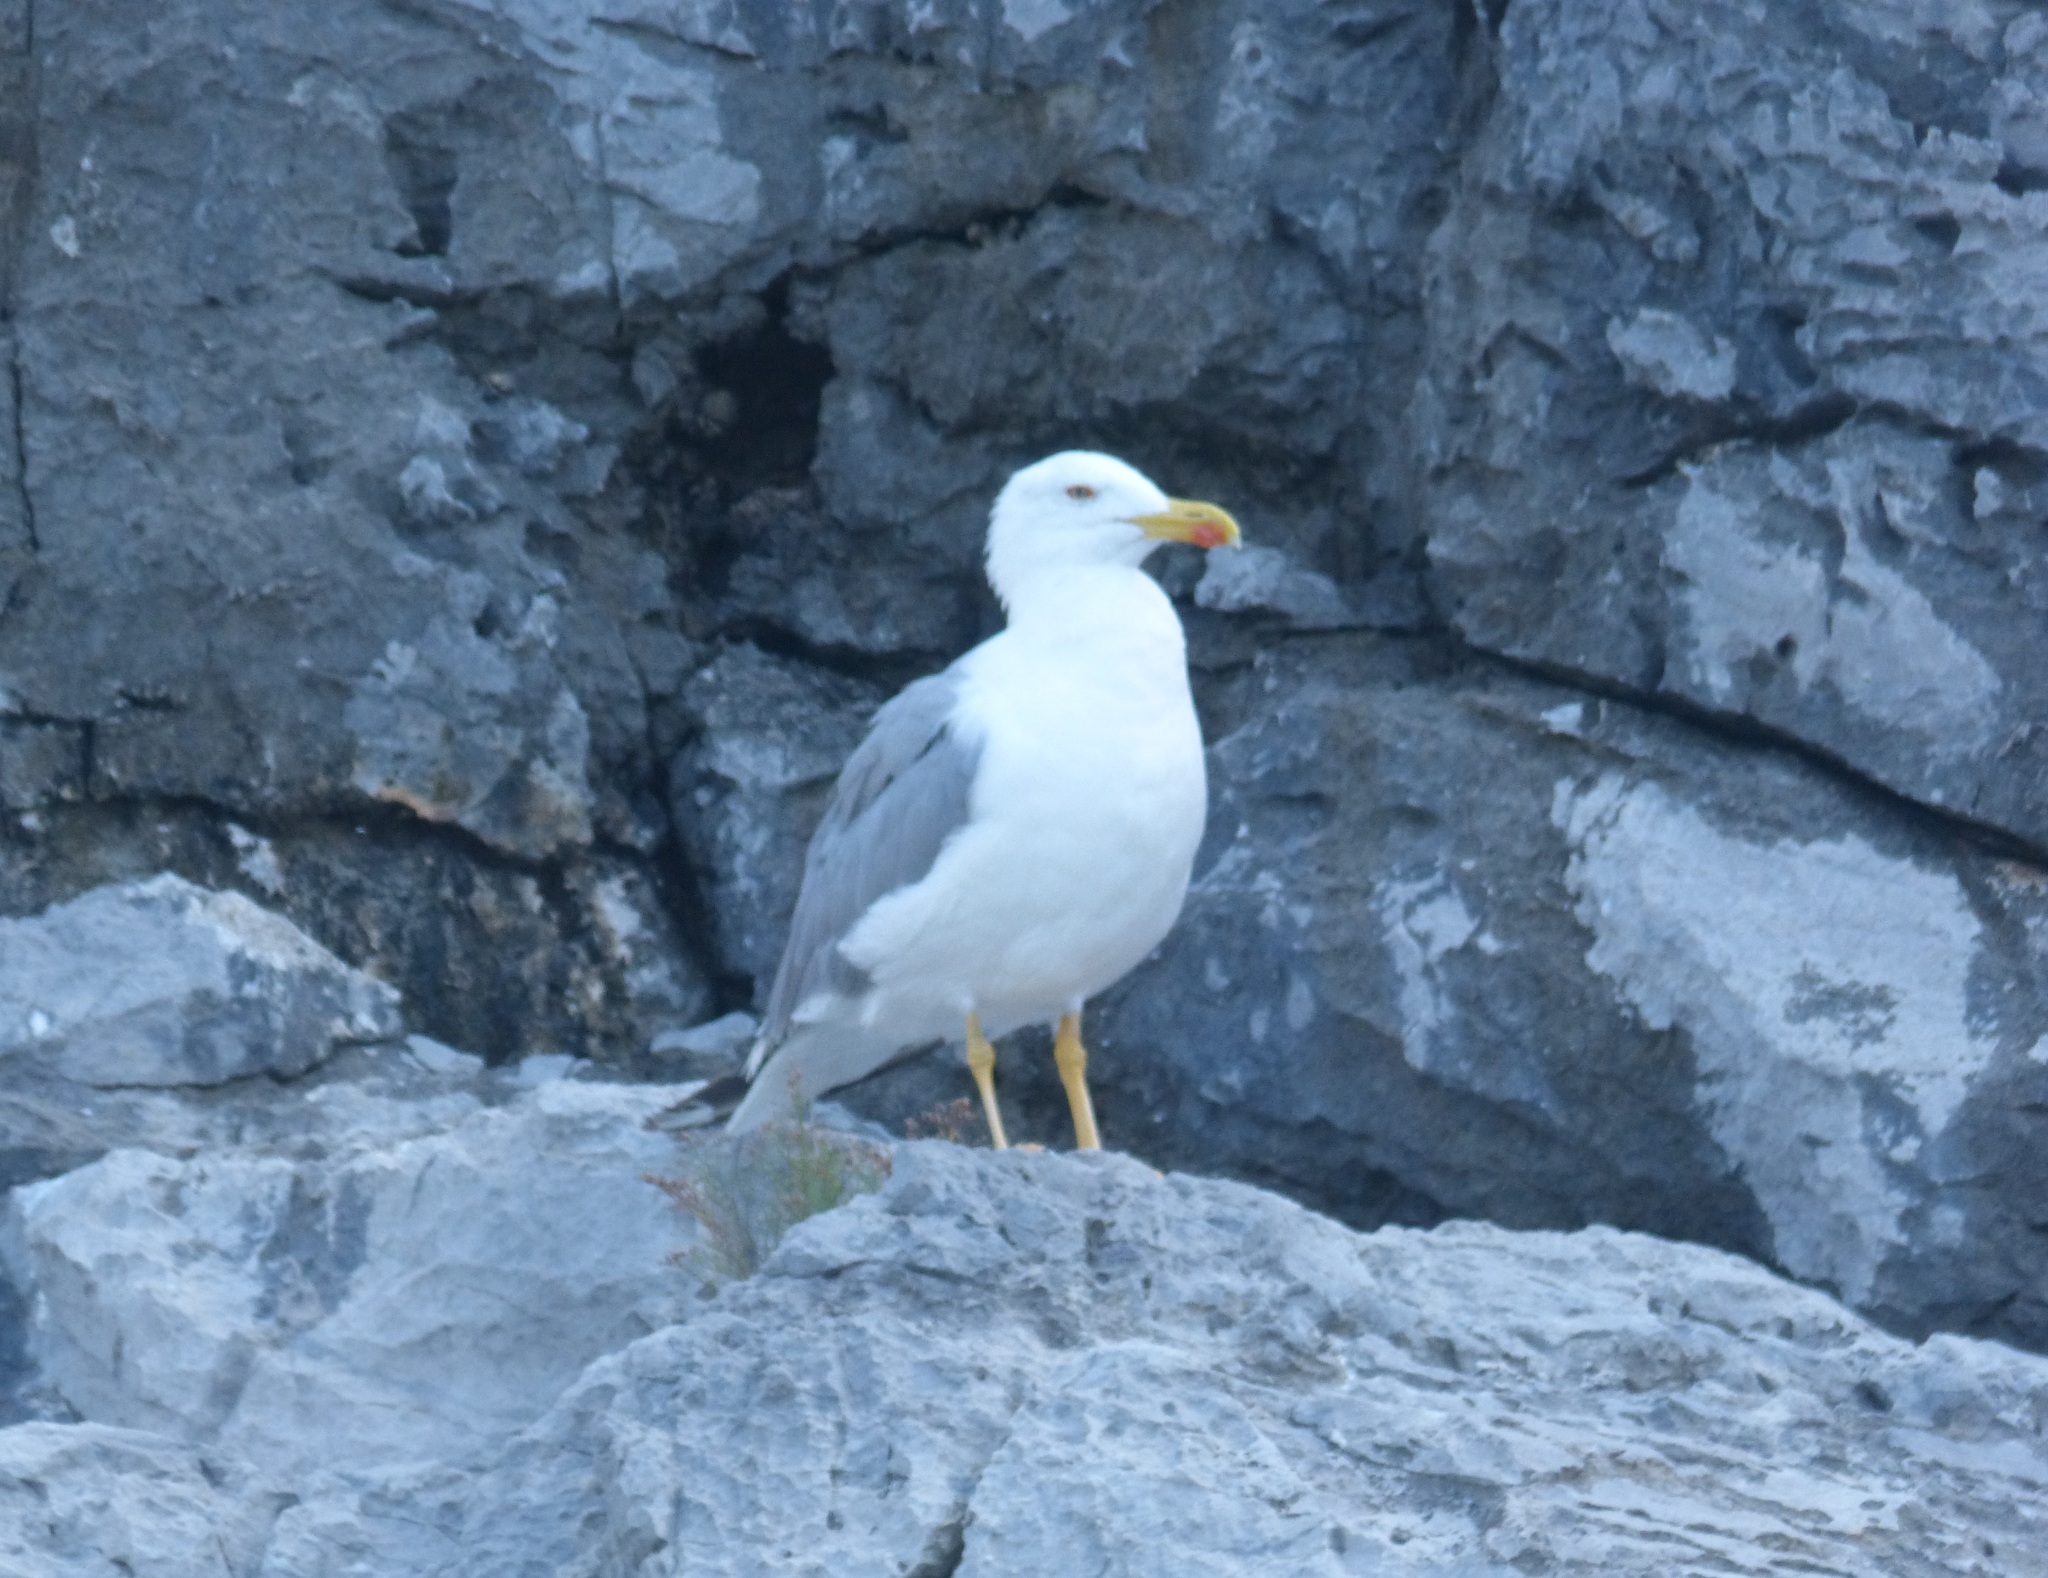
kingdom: Animalia
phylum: Chordata
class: Aves
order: Charadriiformes
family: Laridae
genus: Larus
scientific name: Larus michahellis
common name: Yellow-legged gull
